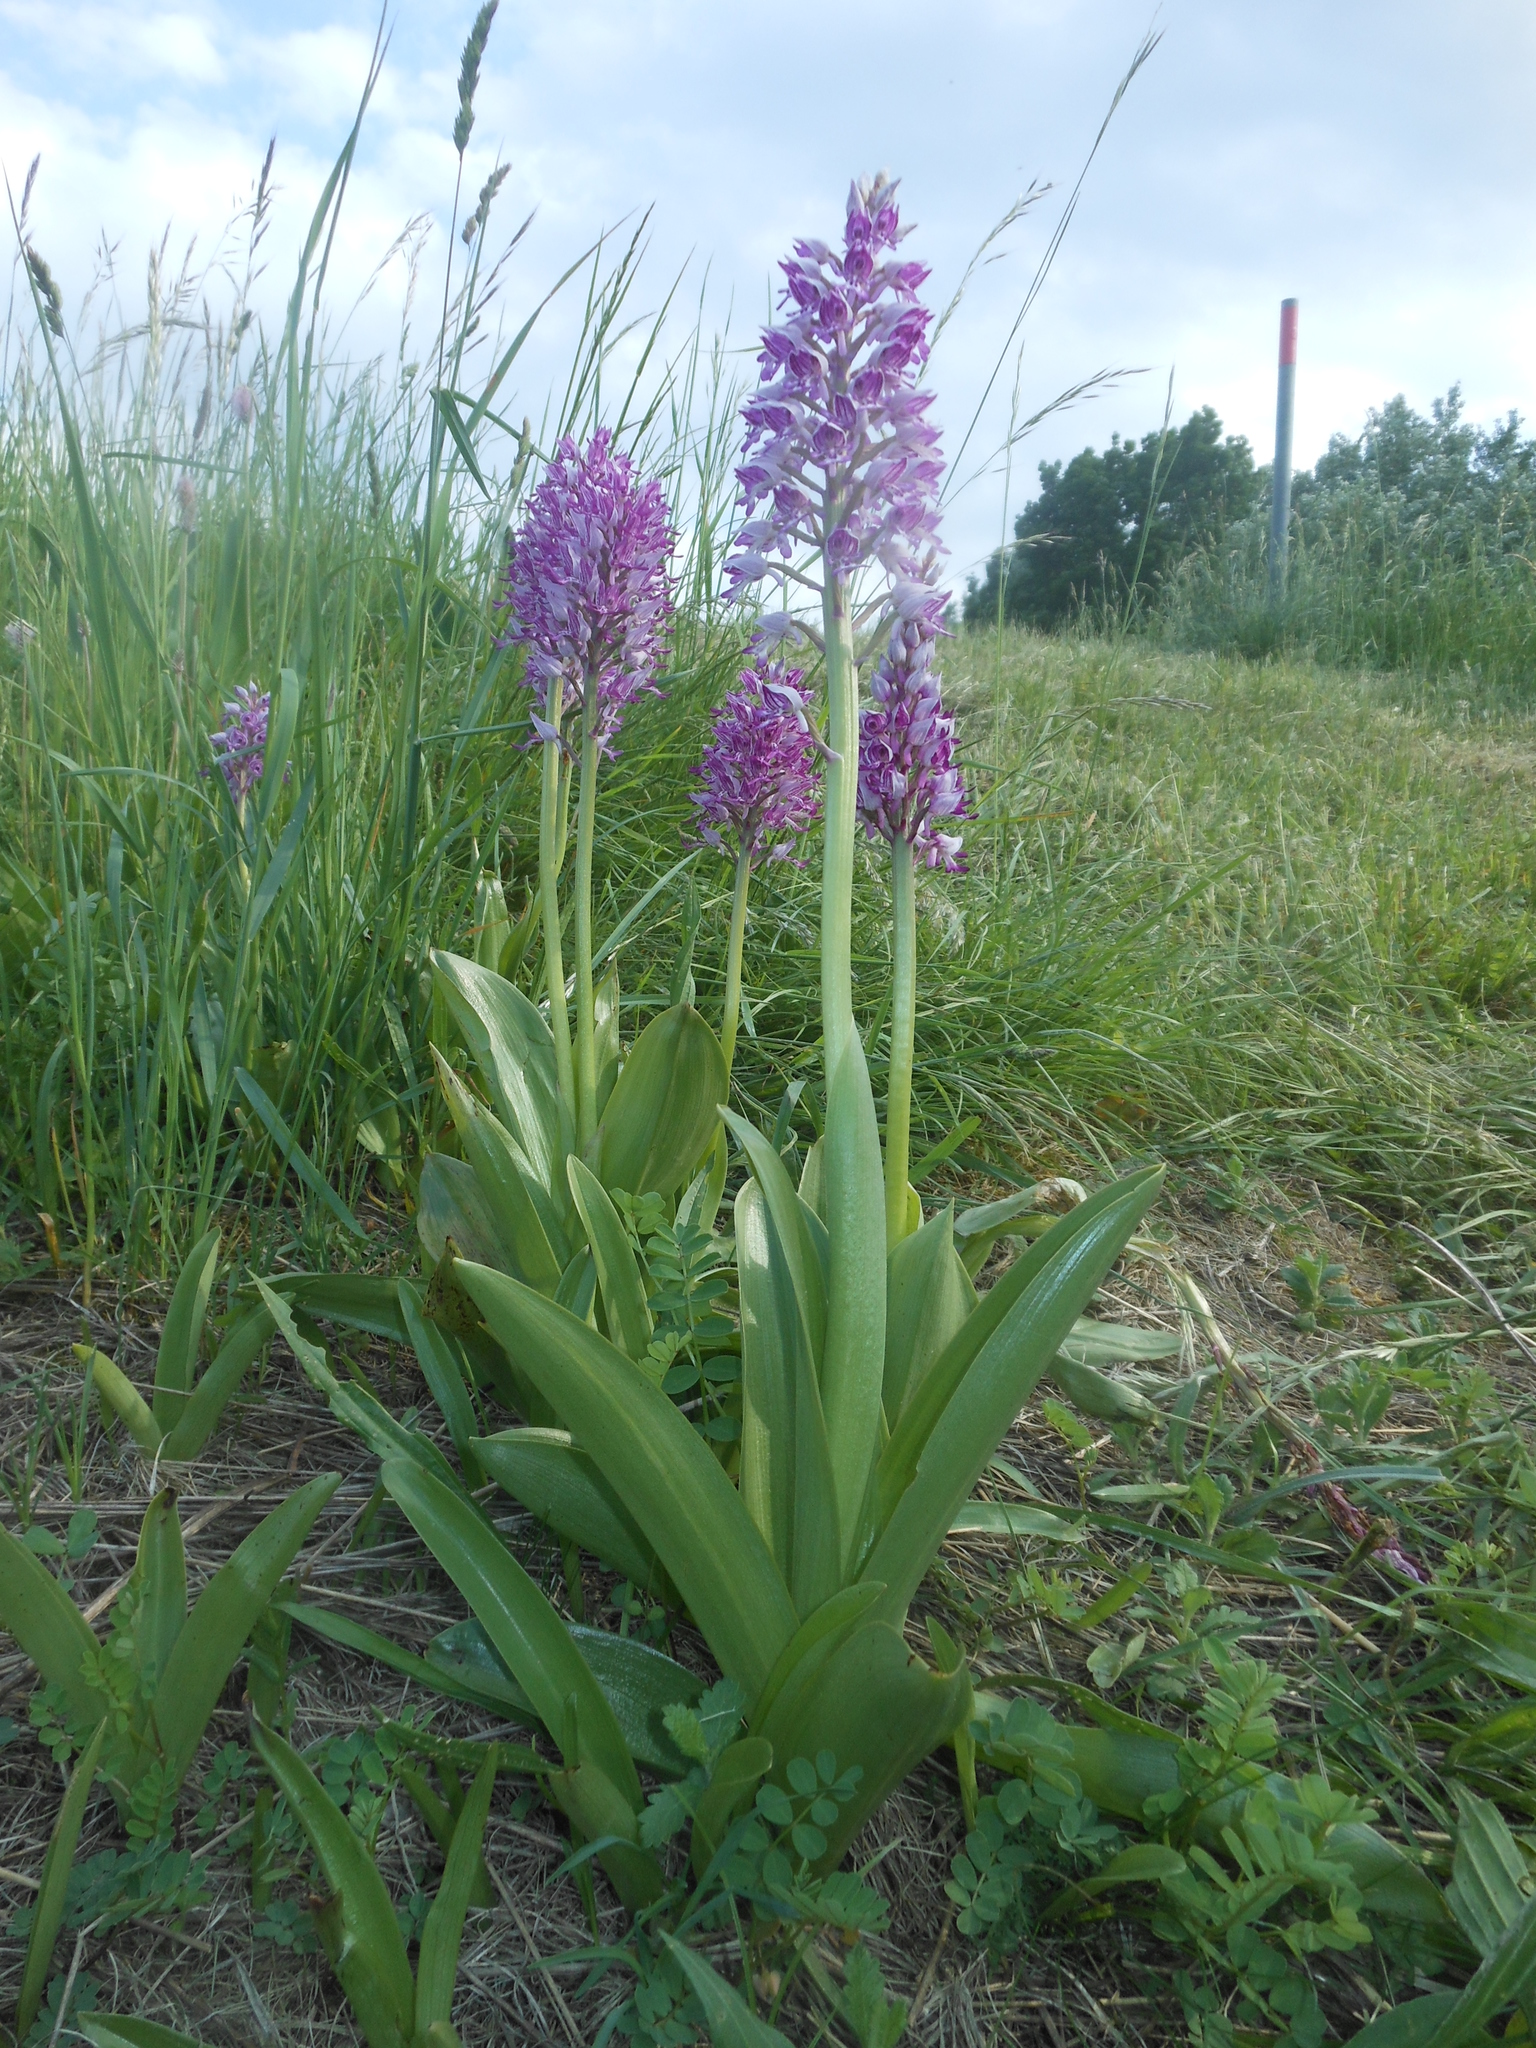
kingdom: Plantae
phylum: Tracheophyta
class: Liliopsida
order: Asparagales
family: Orchidaceae
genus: Orchis
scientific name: Orchis militaris
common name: Military orchid
